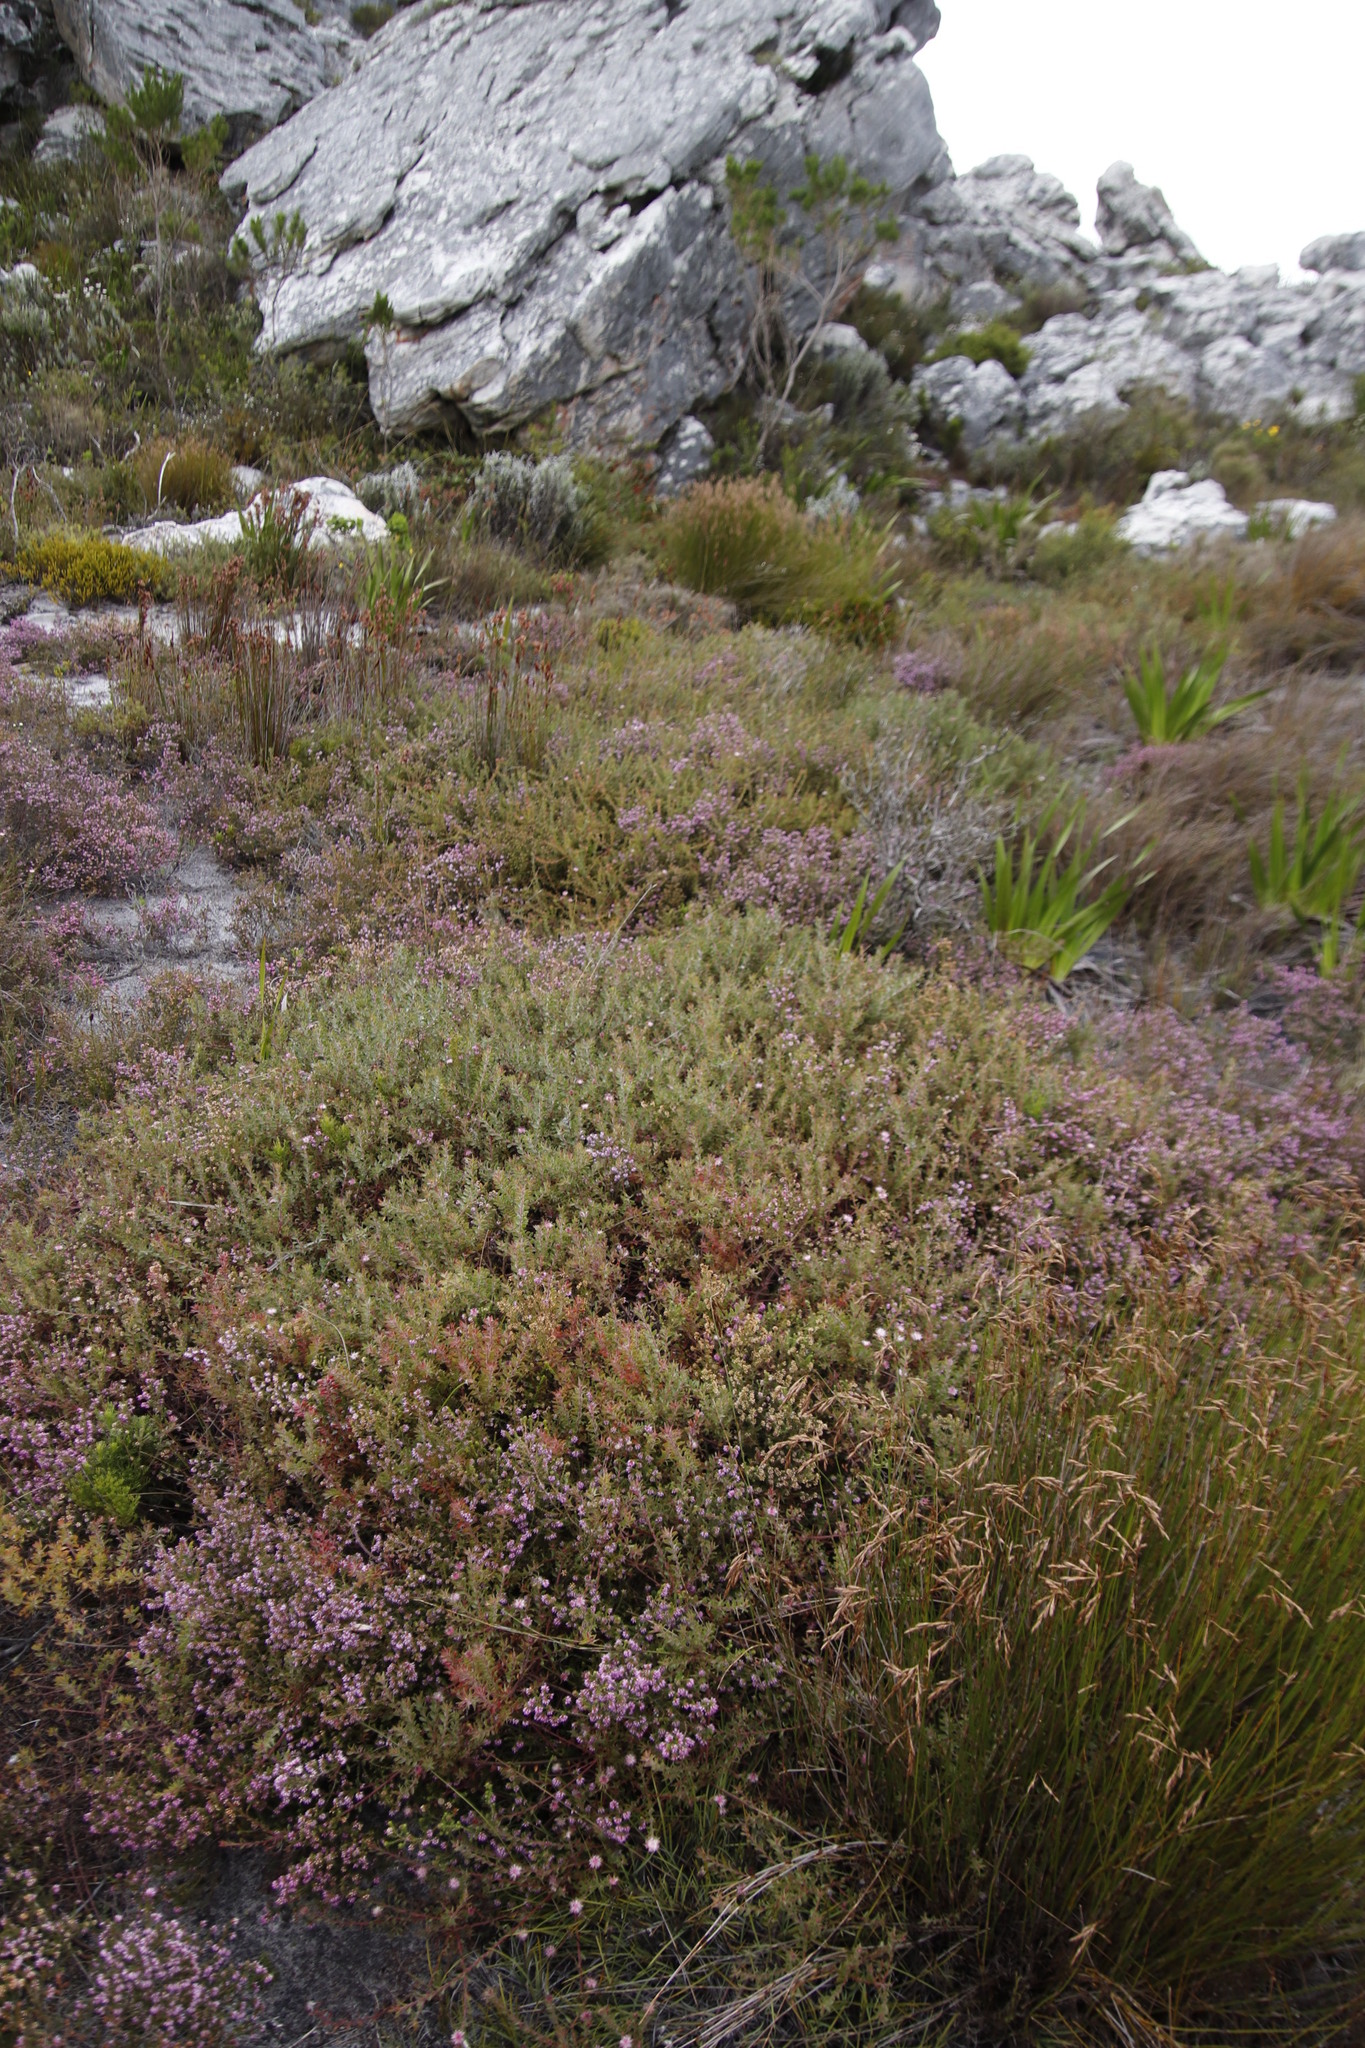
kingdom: Plantae
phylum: Tracheophyta
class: Magnoliopsida
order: Proteales
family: Proteaceae
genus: Diastella
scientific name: Diastella divaricata
